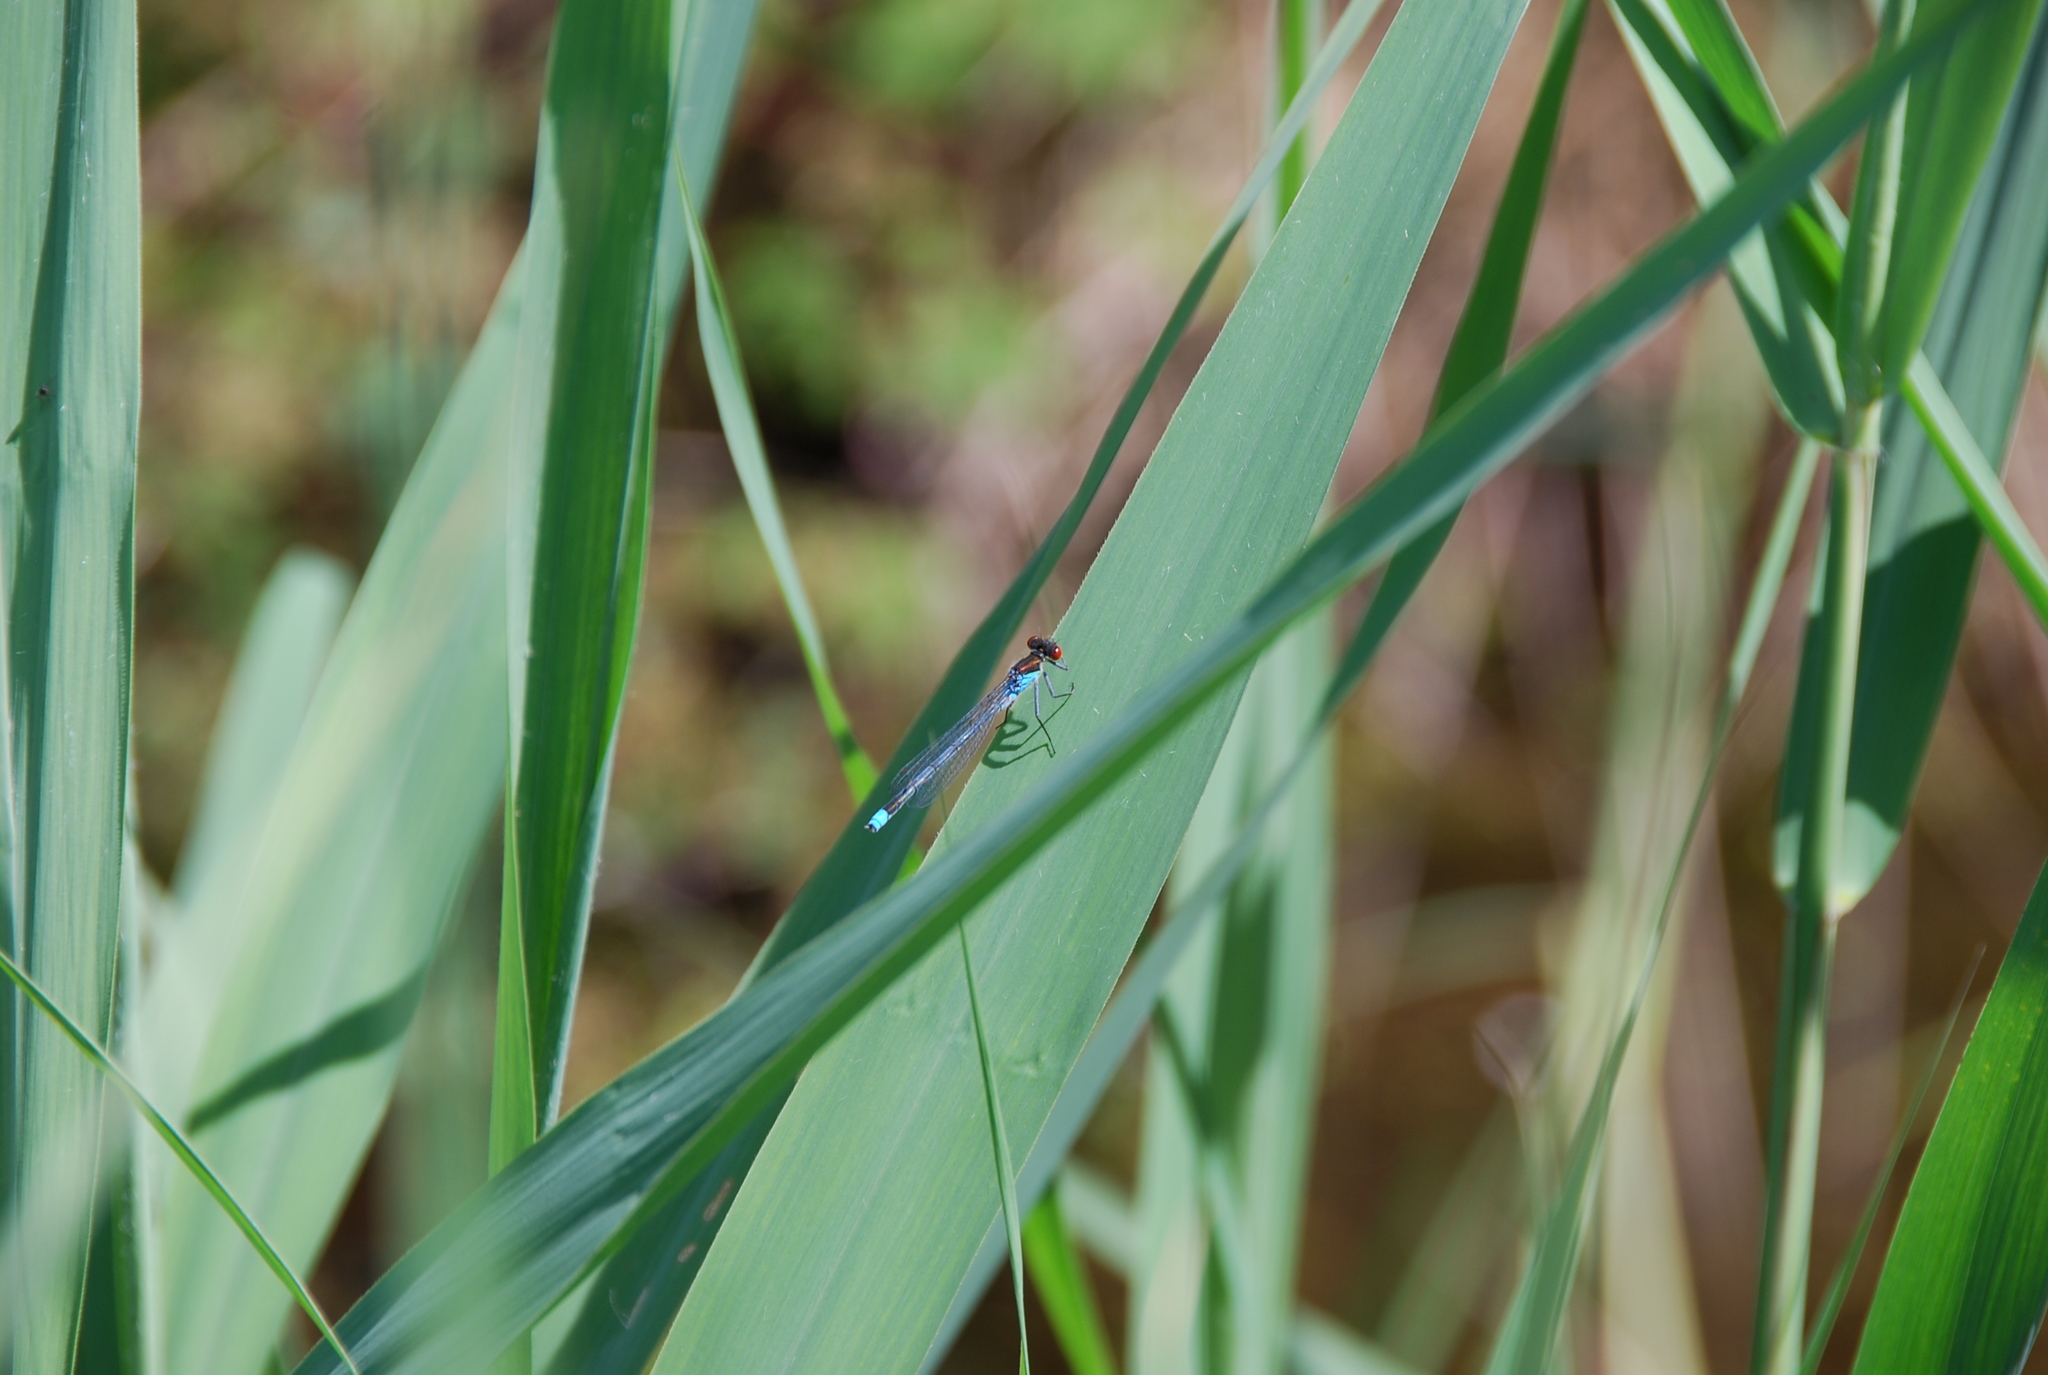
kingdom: Animalia
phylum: Arthropoda
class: Insecta
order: Odonata
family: Coenagrionidae
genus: Erythromma
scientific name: Erythromma najas
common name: Red-eyed damselfly
